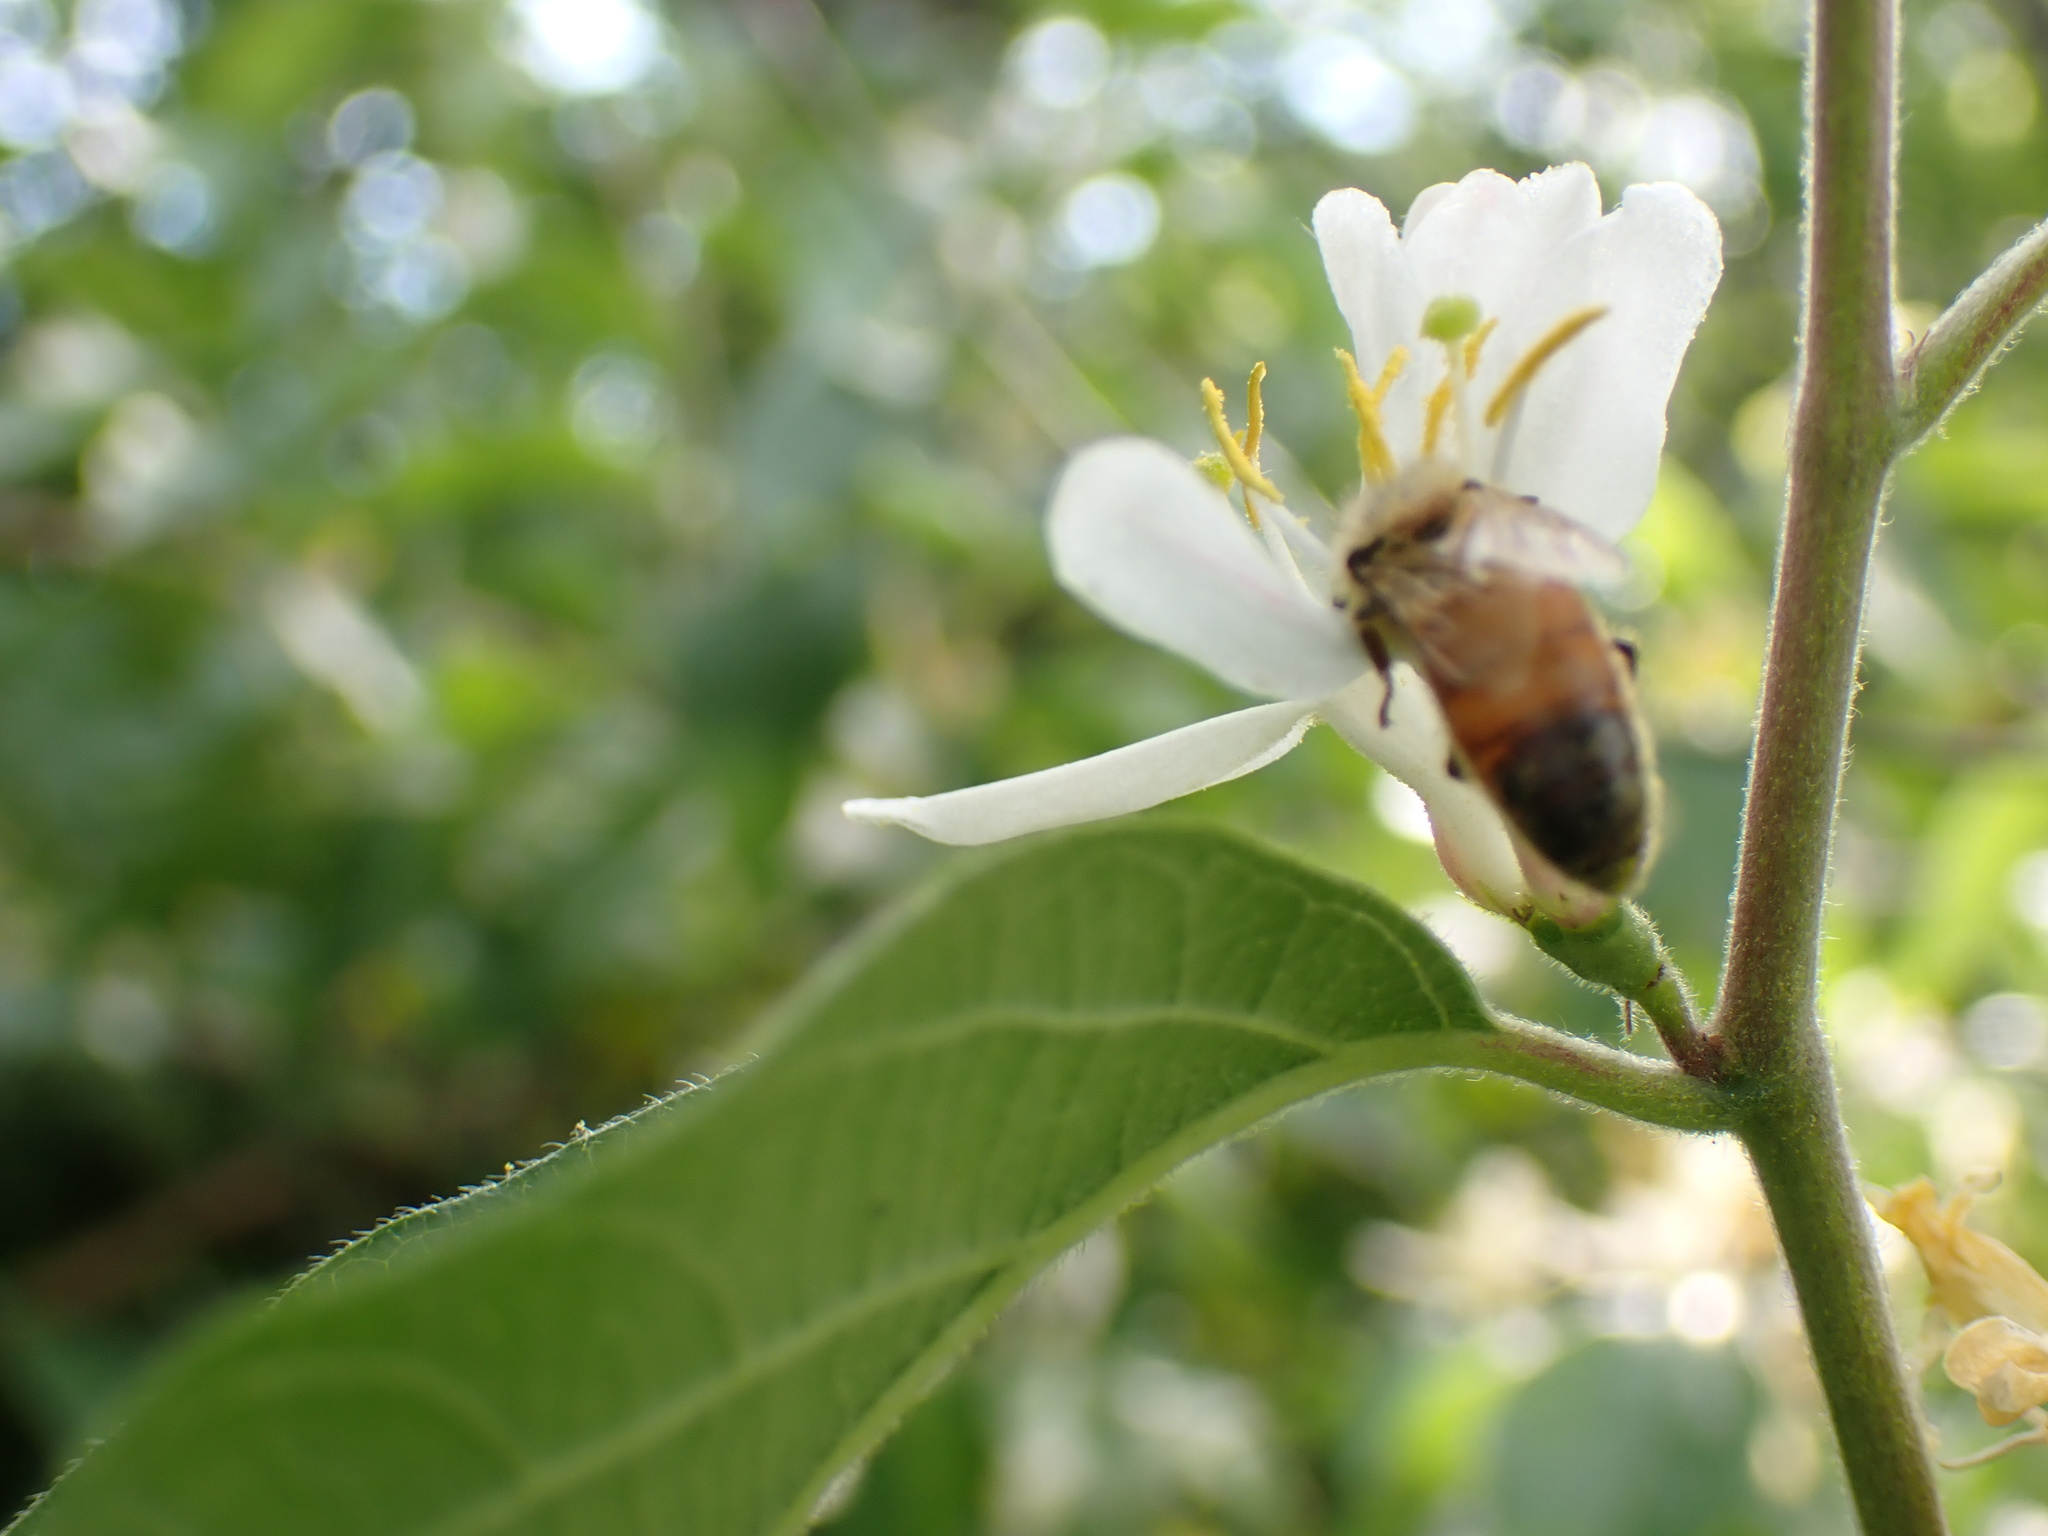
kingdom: Animalia
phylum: Arthropoda
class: Insecta
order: Hymenoptera
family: Apidae
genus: Apis
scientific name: Apis mellifera
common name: Honey bee
